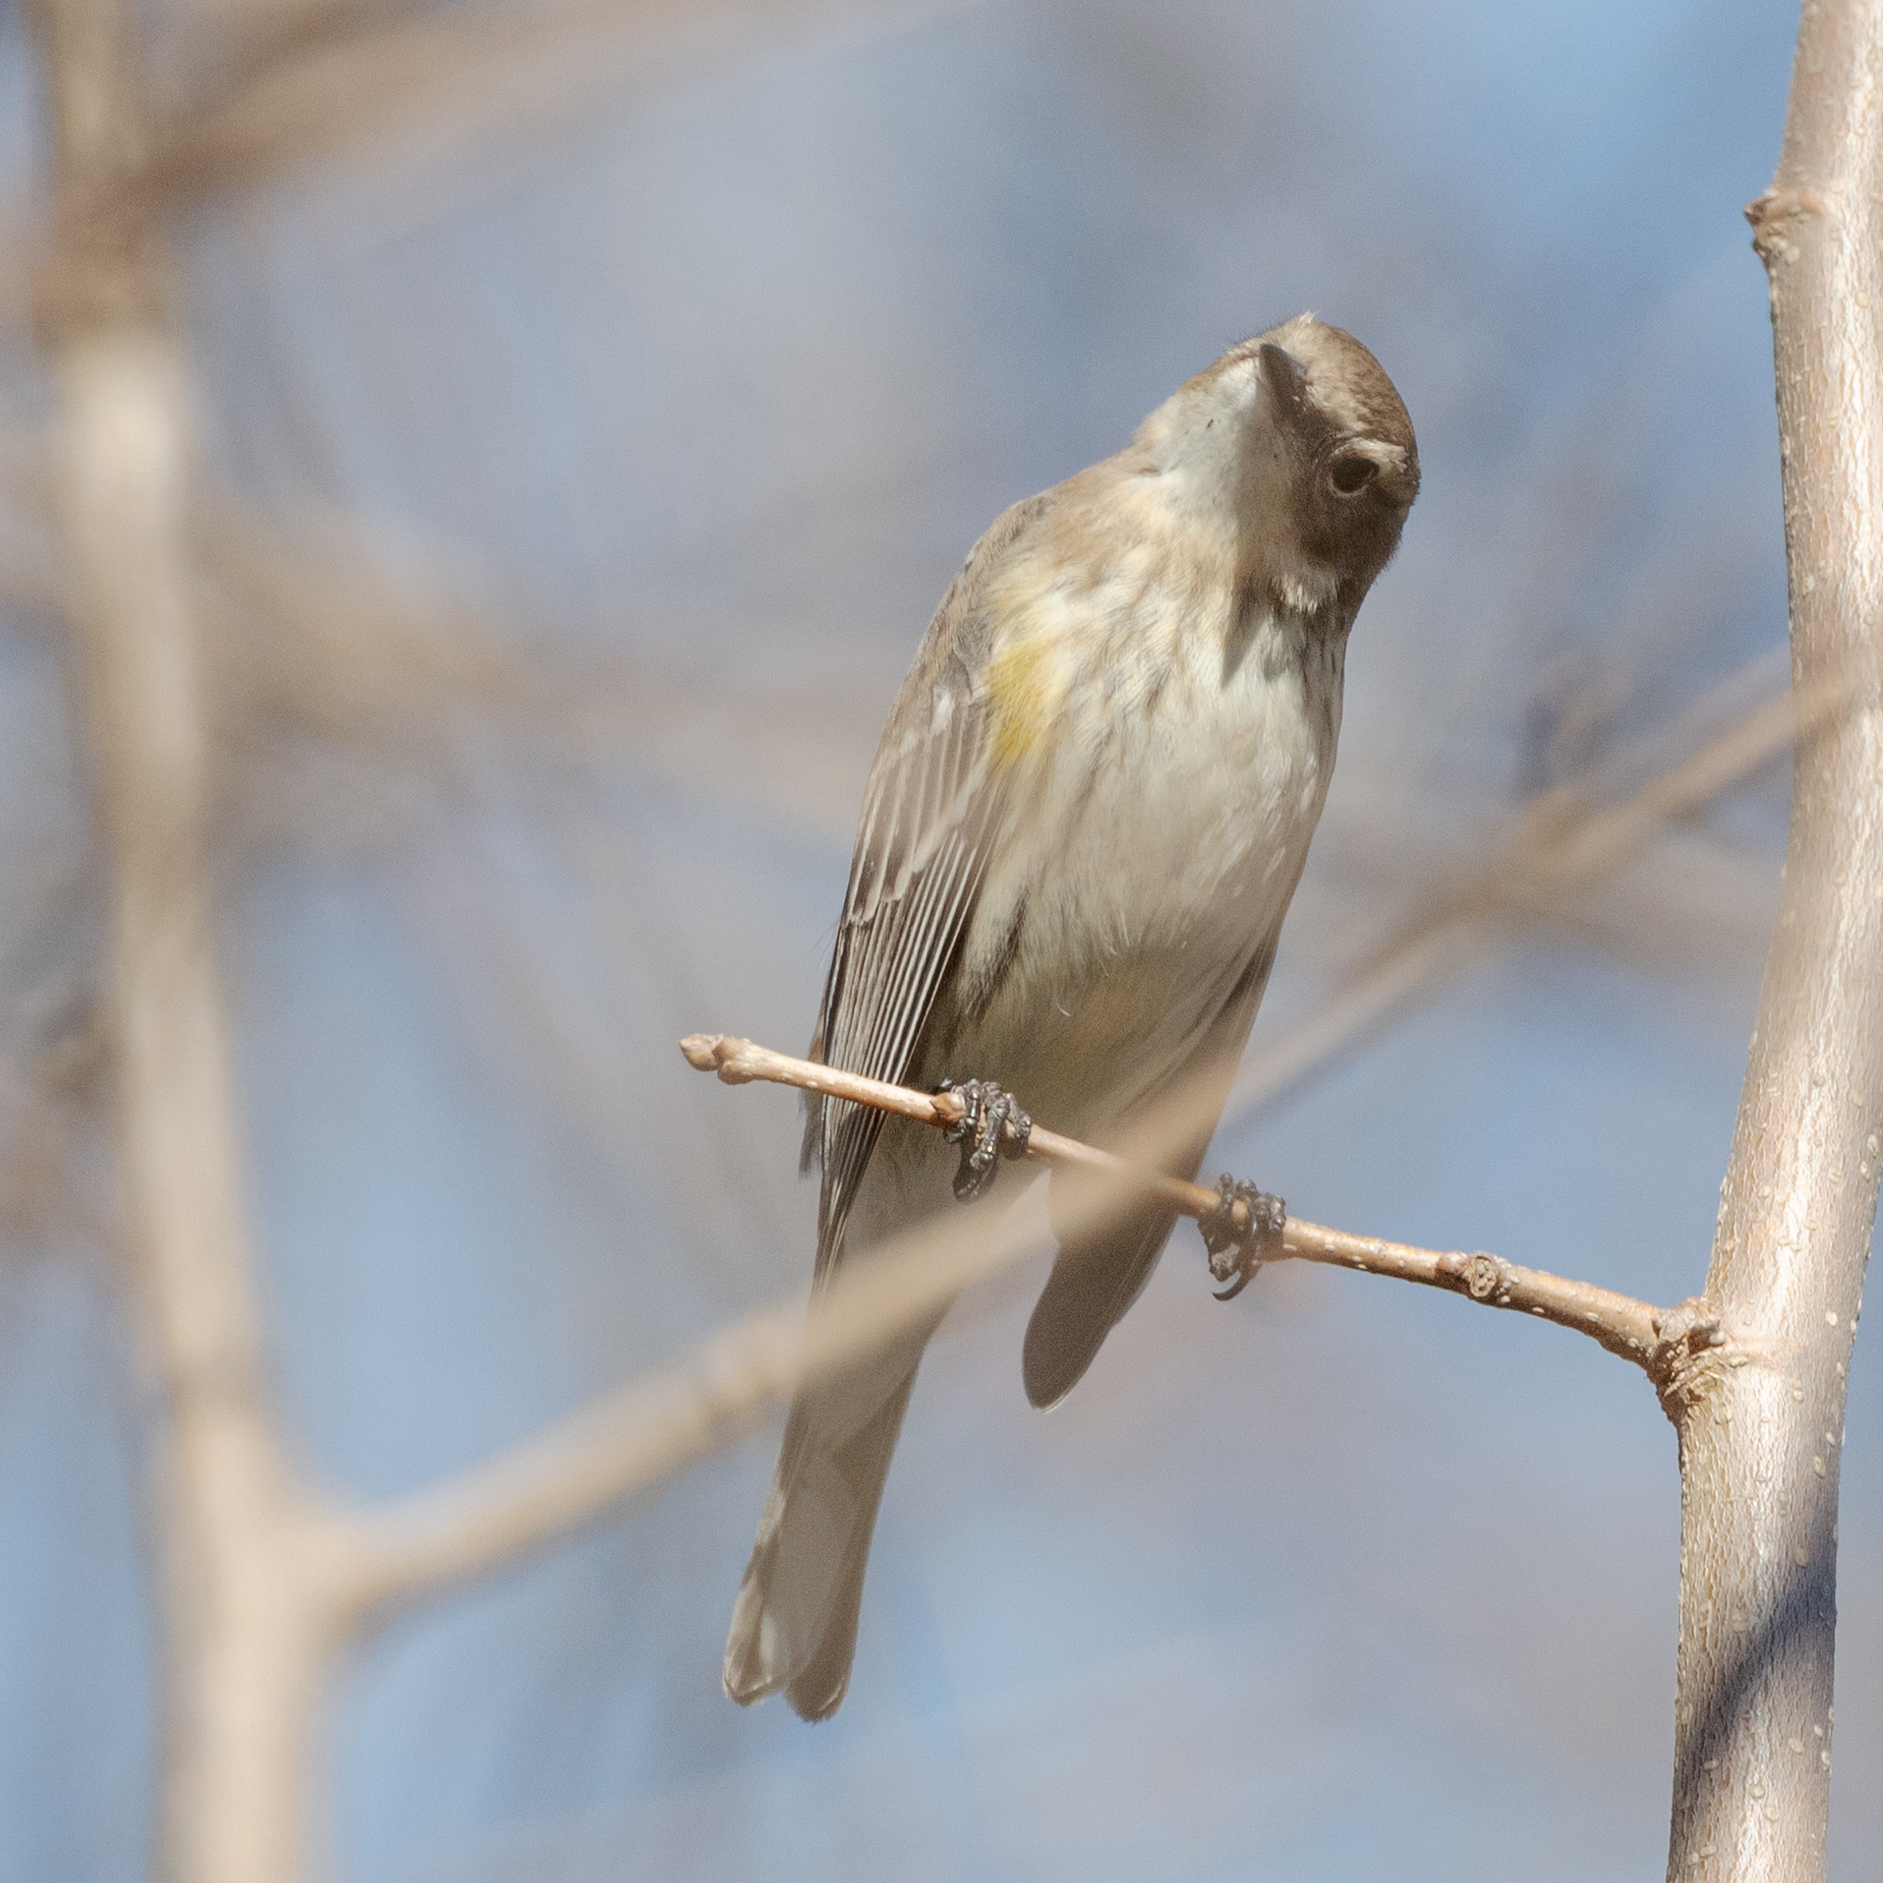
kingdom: Animalia
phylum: Chordata
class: Aves
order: Passeriformes
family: Parulidae
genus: Setophaga
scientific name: Setophaga coronata
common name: Myrtle warbler
